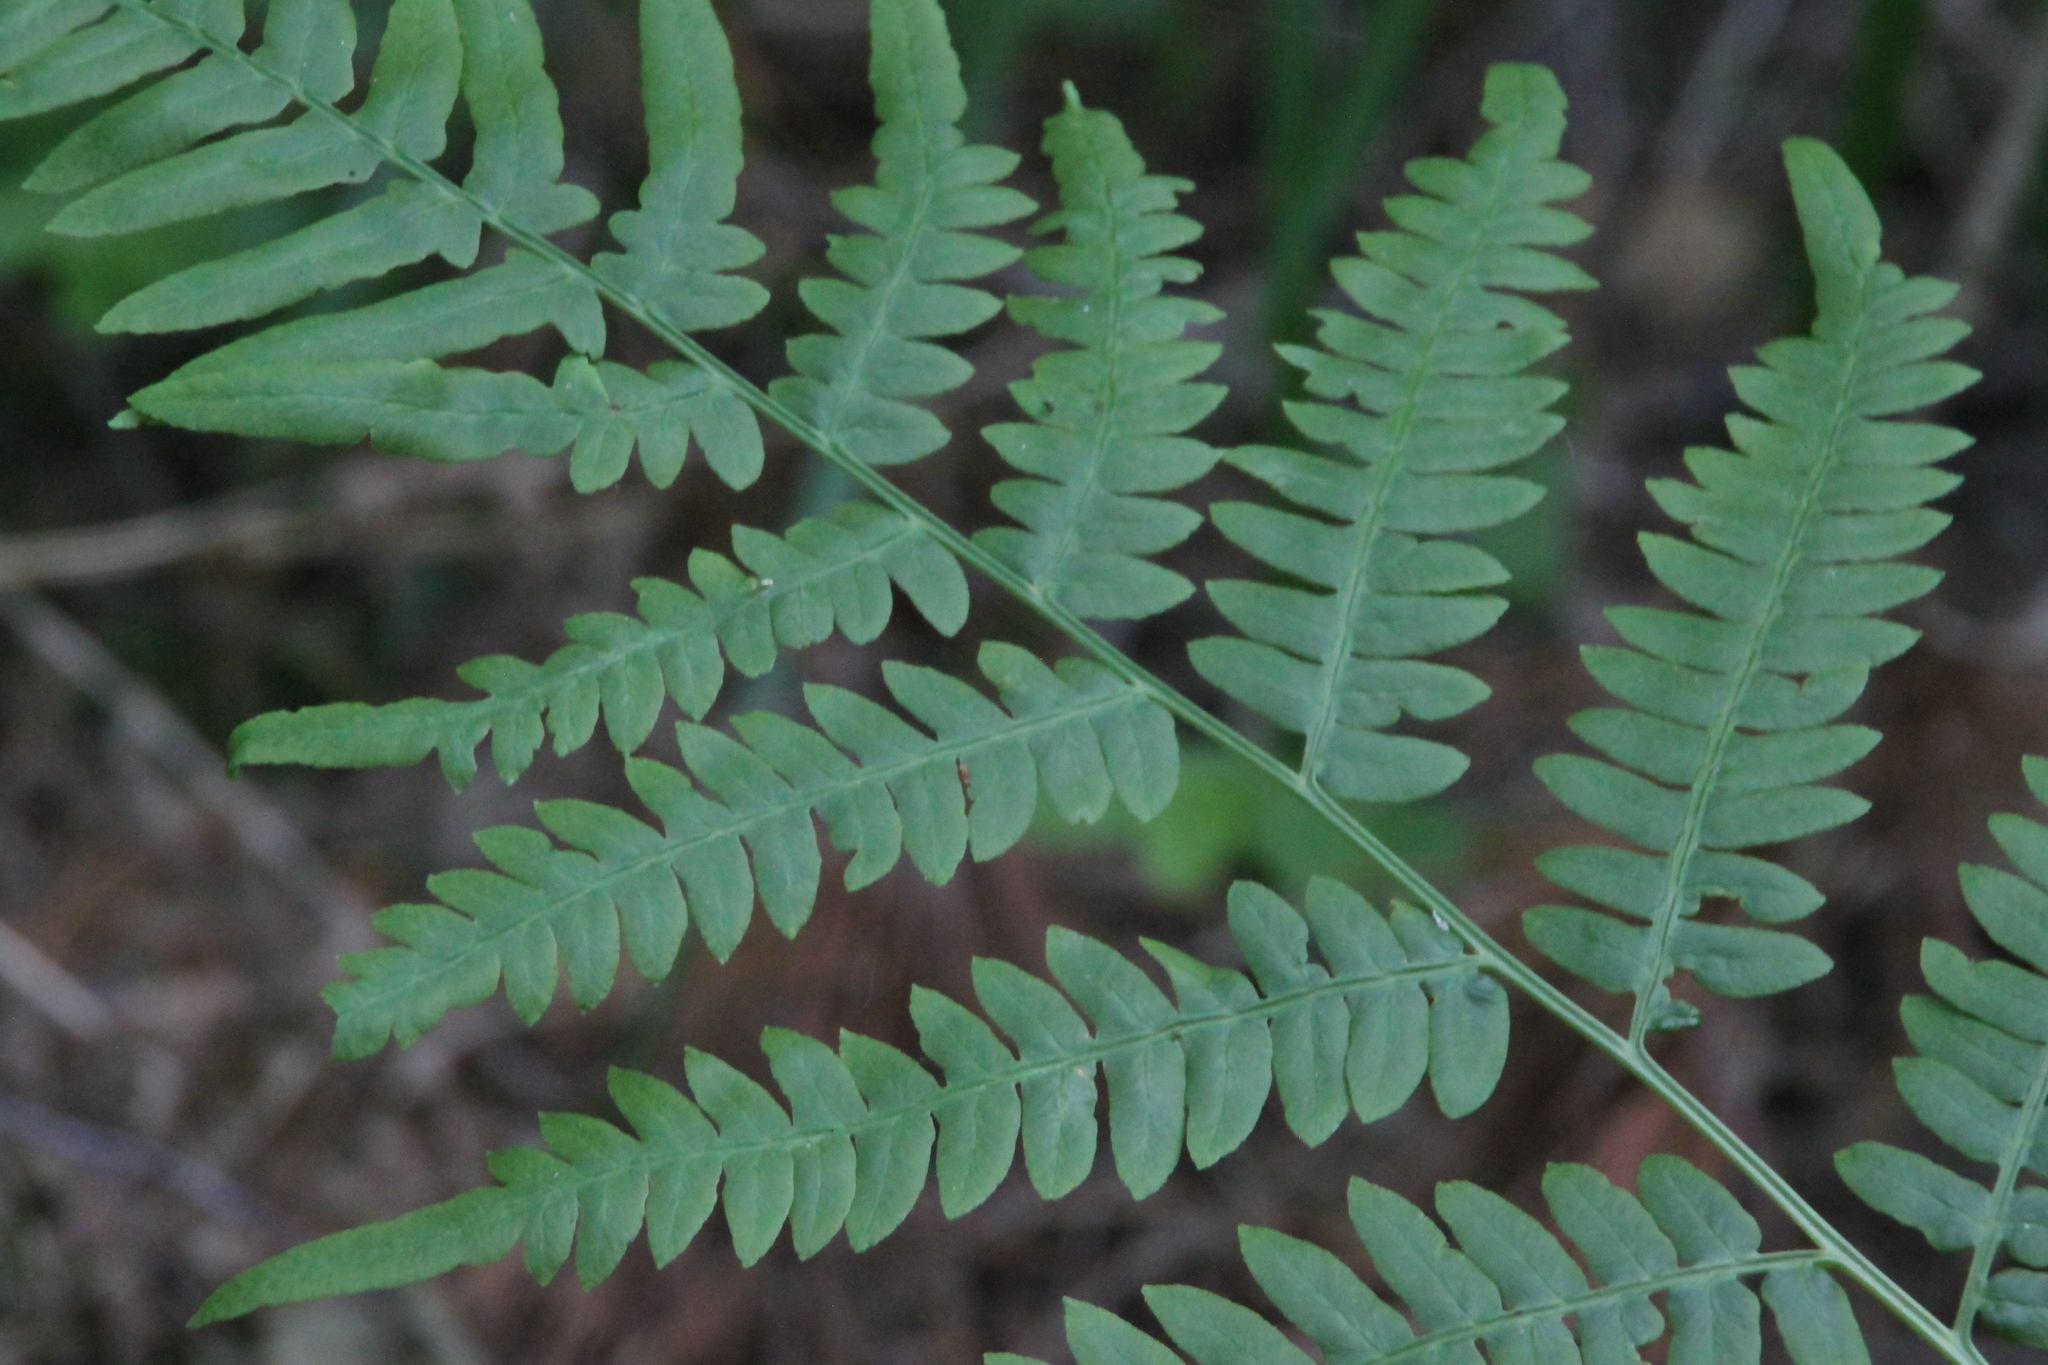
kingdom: Plantae
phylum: Tracheophyta
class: Polypodiopsida
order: Polypodiales
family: Dennstaedtiaceae
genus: Pteridium
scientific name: Pteridium aquilinum
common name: Bracken
